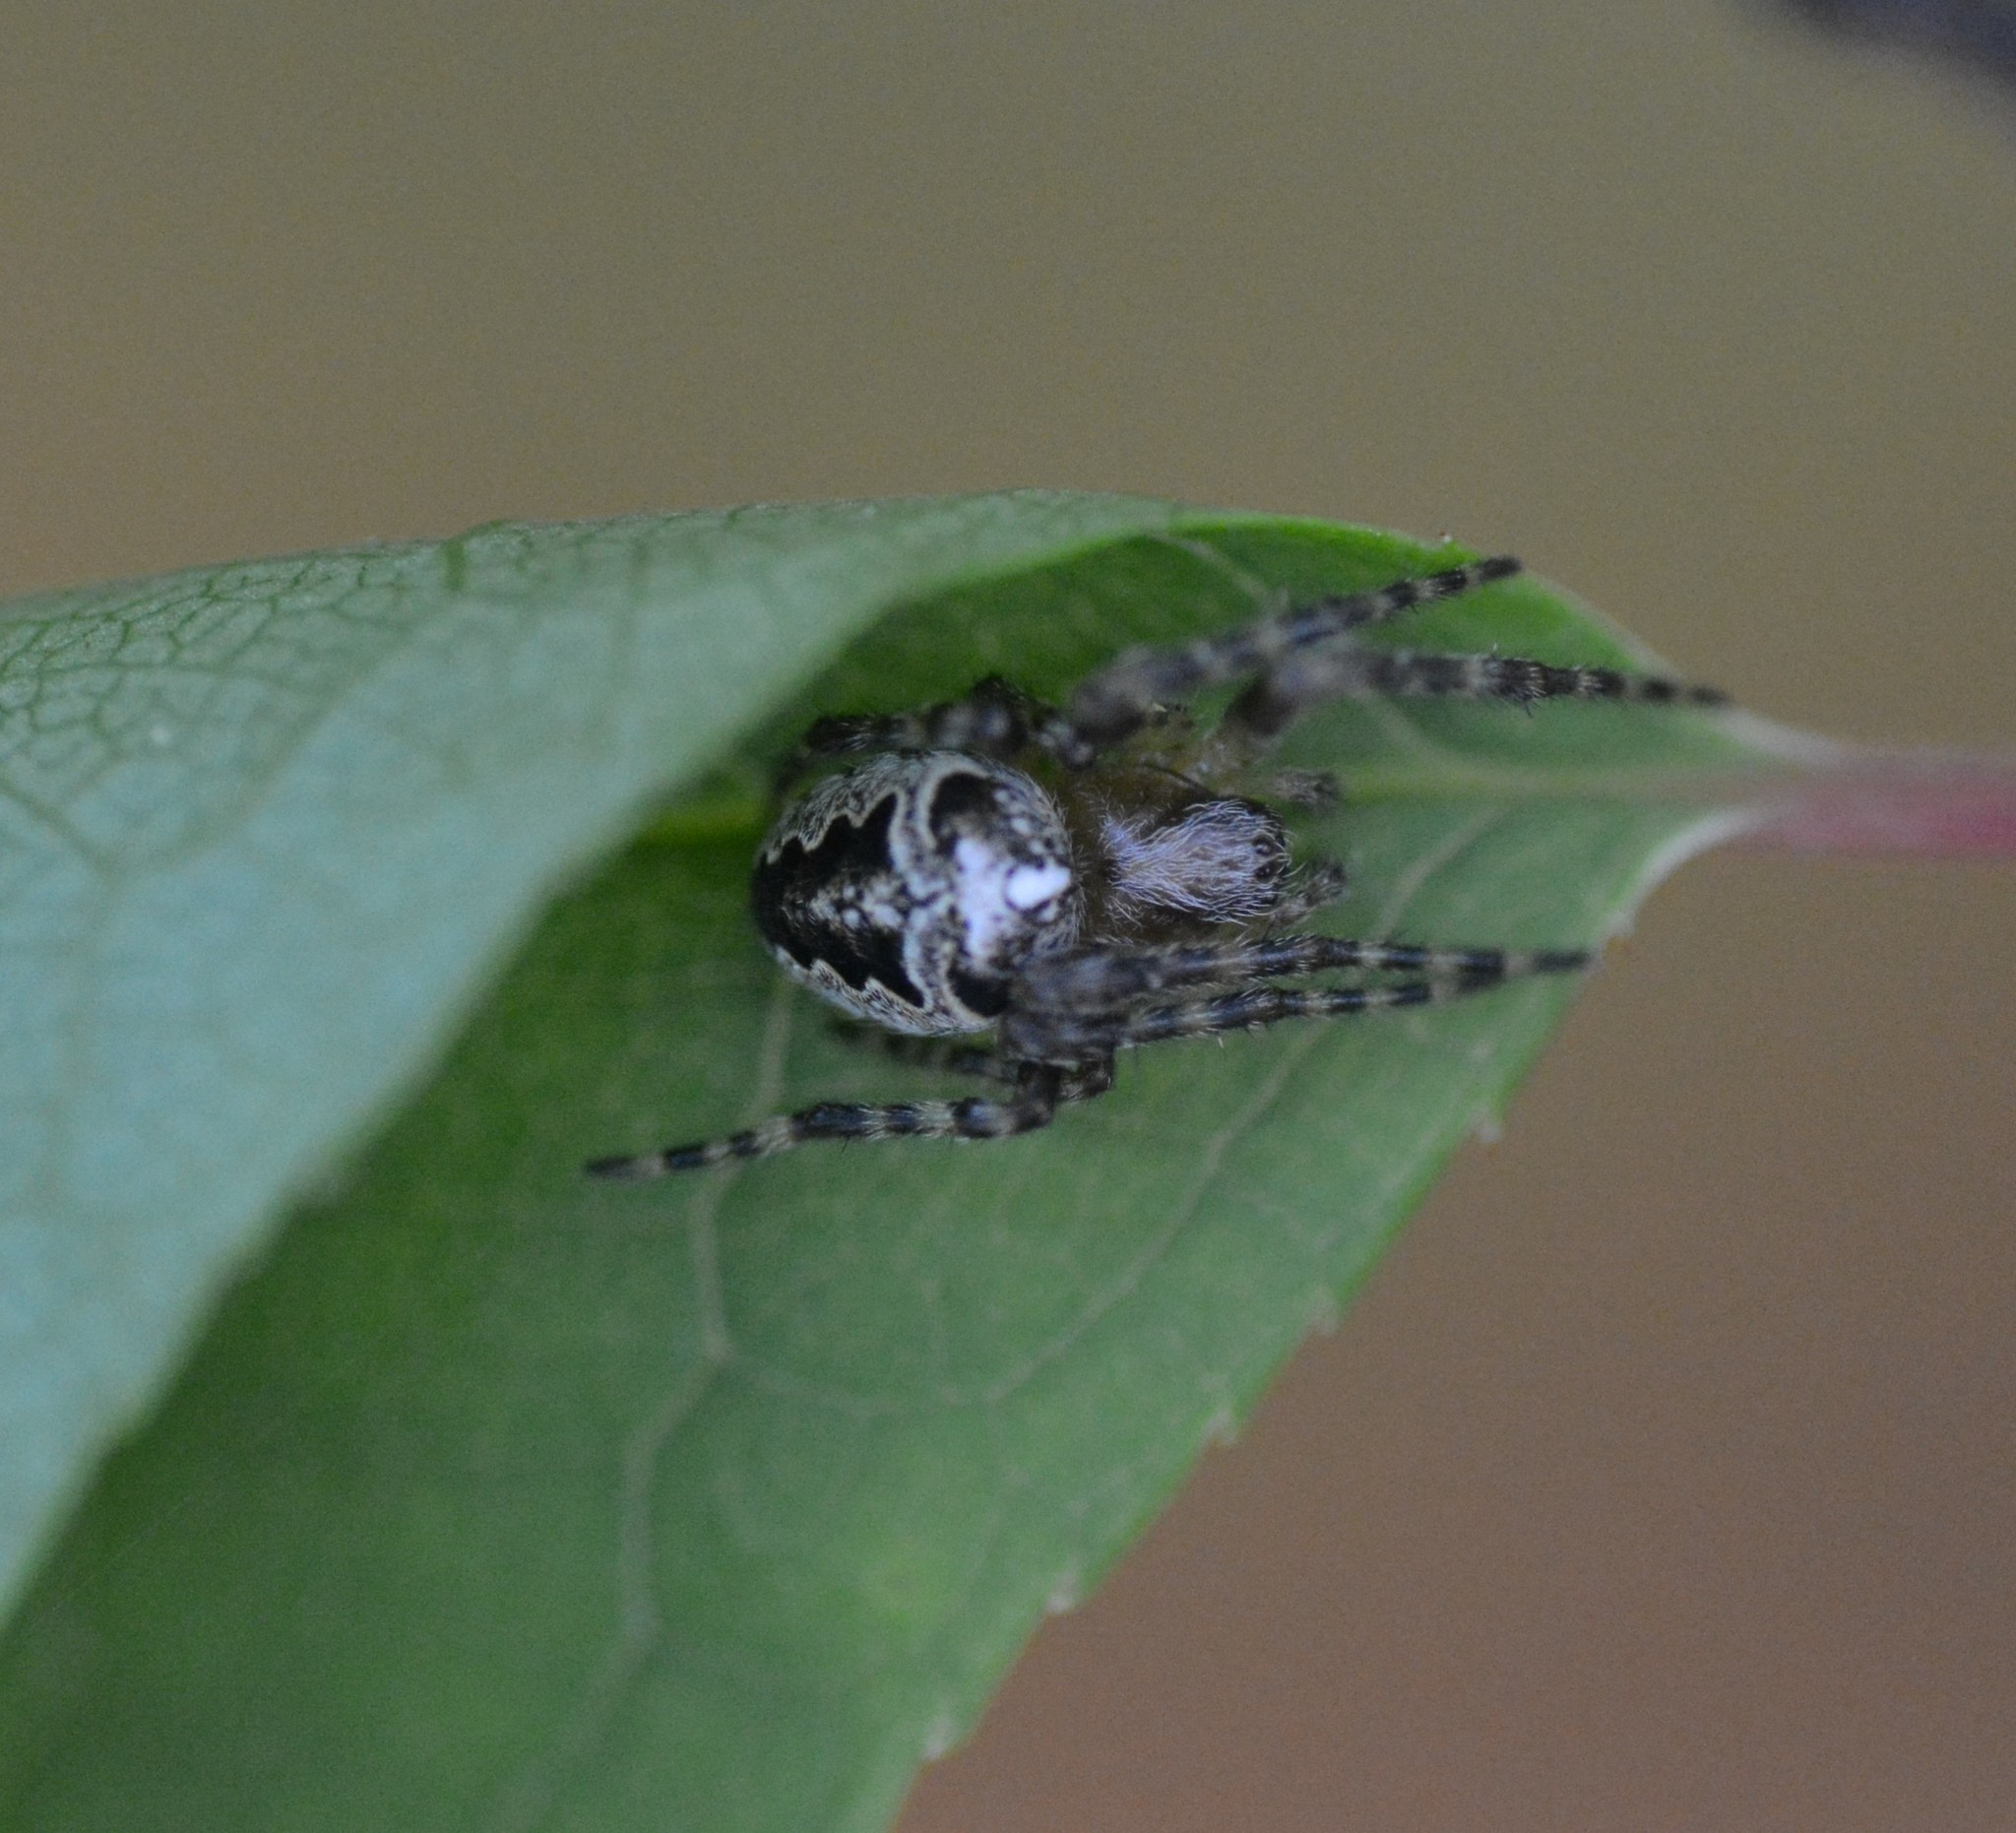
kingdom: Animalia
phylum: Arthropoda
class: Arachnida
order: Araneae
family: Araneidae
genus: Araneus
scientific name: Araneus nordmanni
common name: Nordmann's orbweaver
